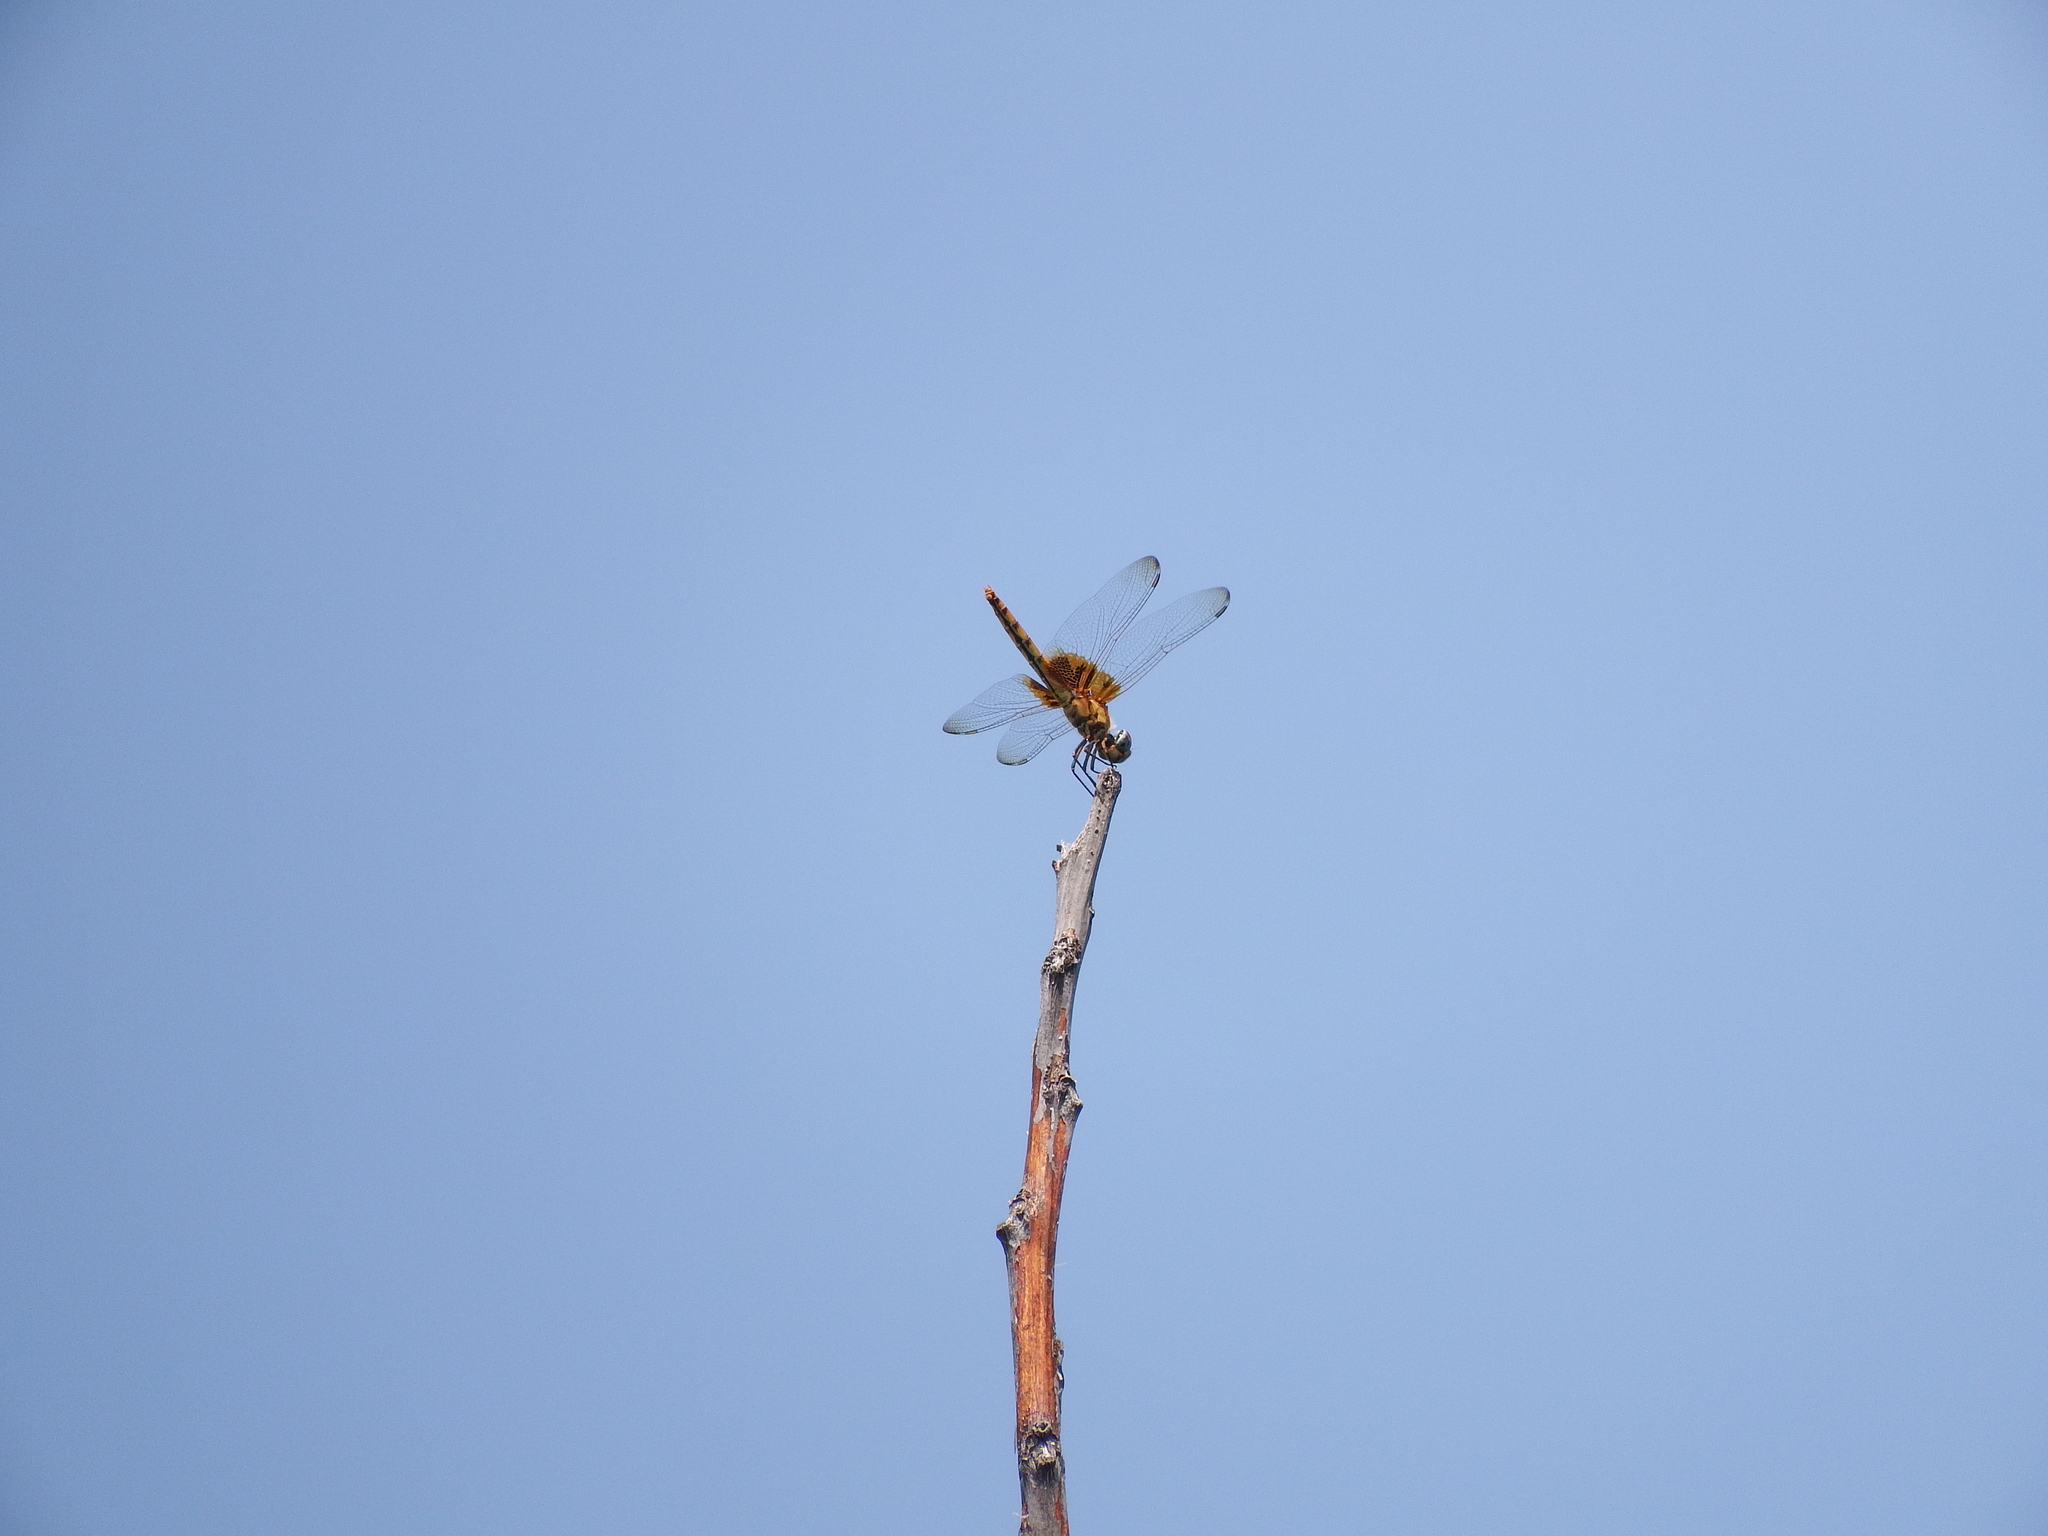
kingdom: Animalia
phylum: Arthropoda
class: Insecta
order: Odonata
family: Libellulidae
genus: Urothemis
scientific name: Urothemis signata
